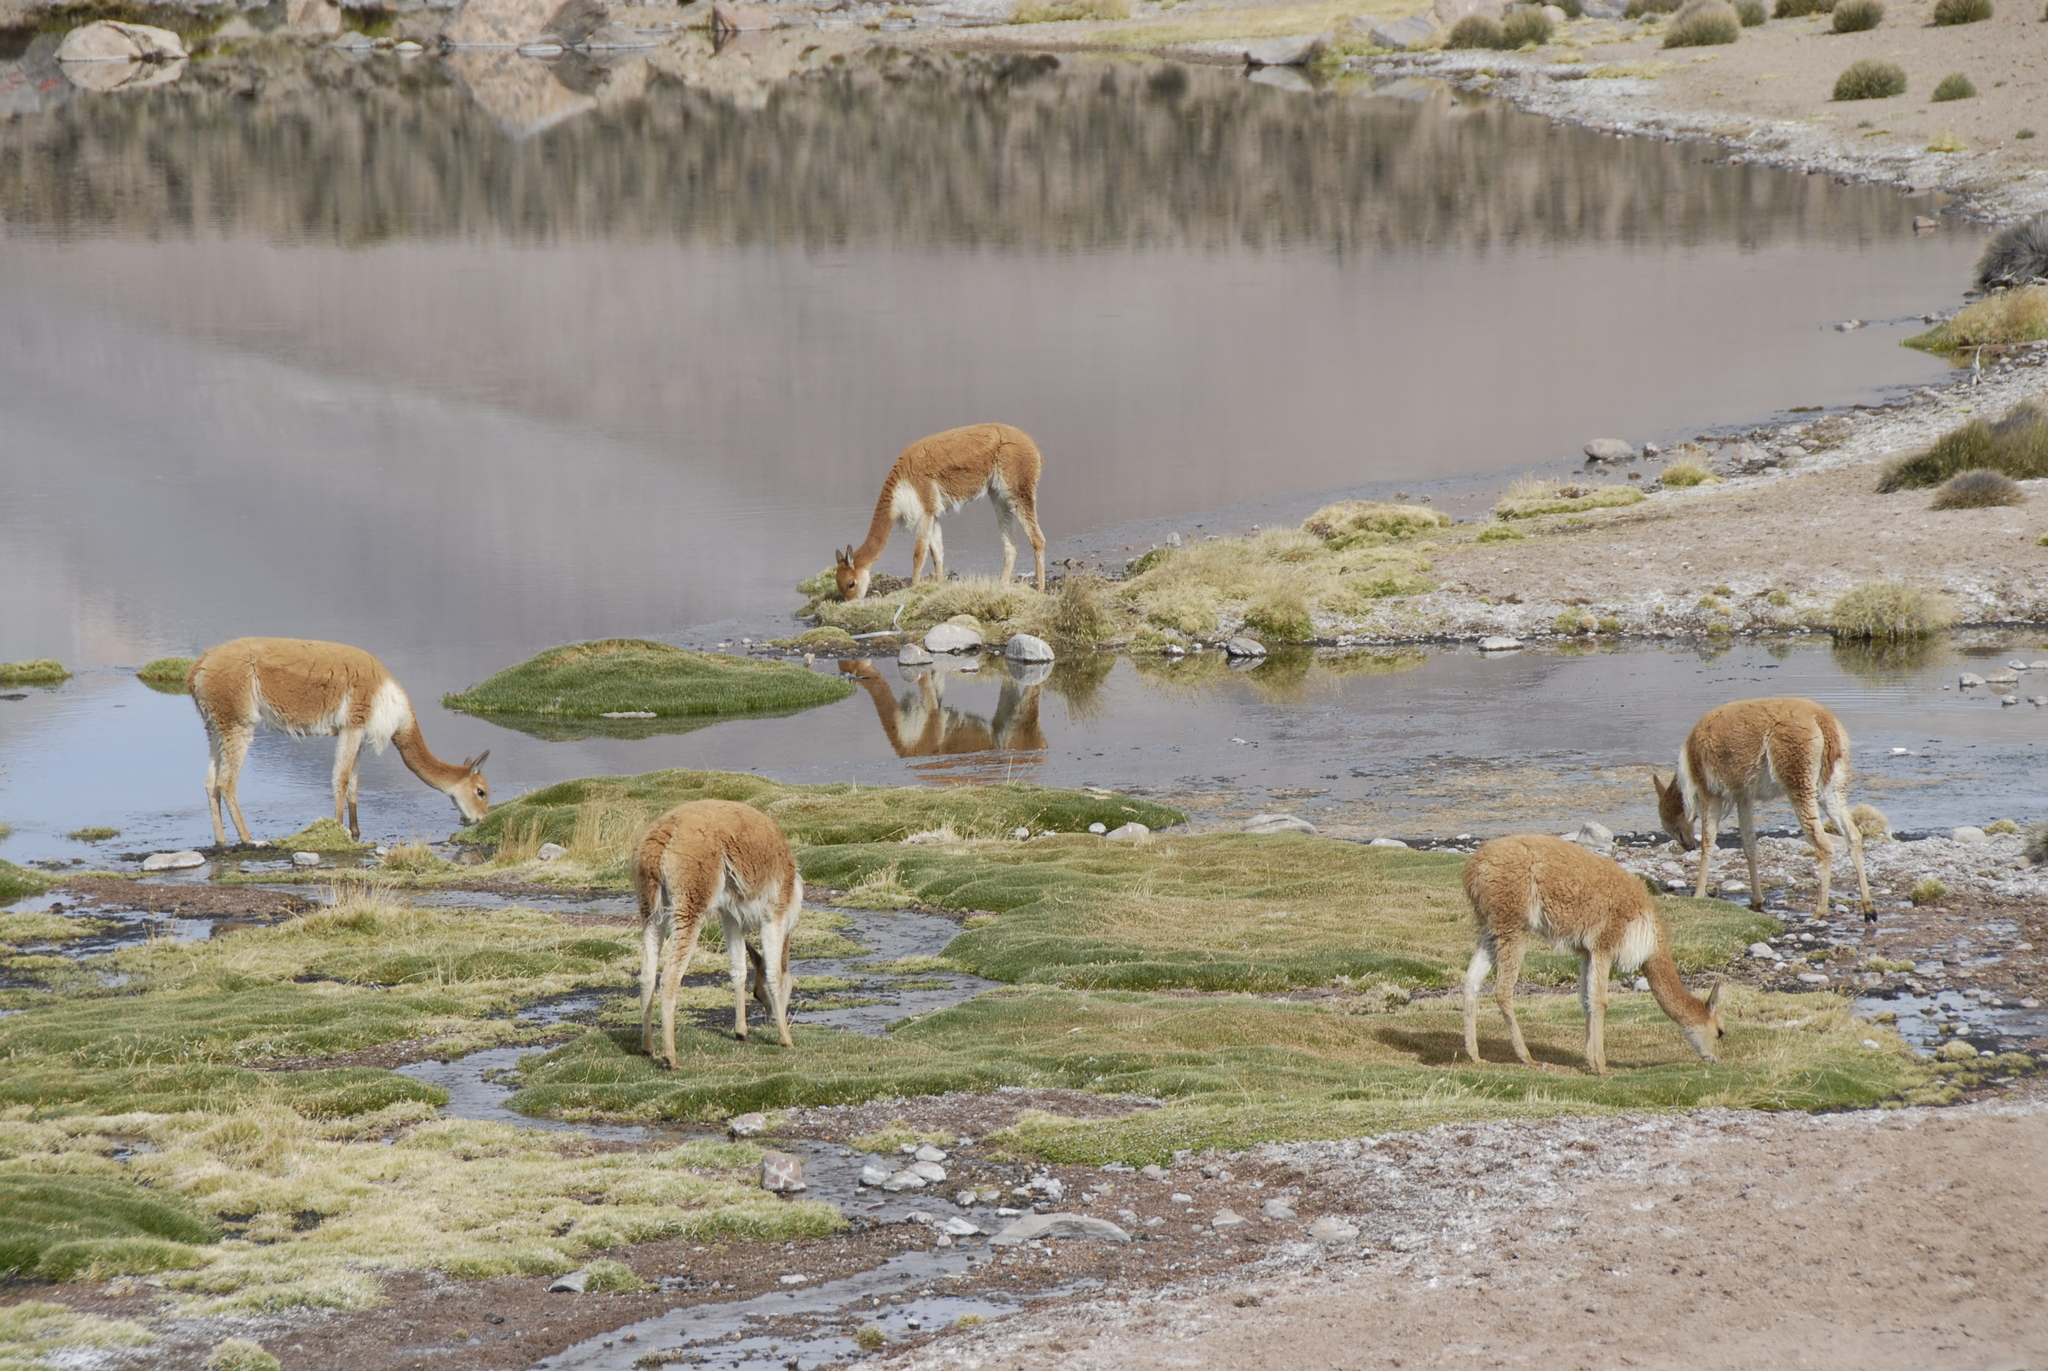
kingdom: Animalia
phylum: Chordata
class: Mammalia
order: Artiodactyla
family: Camelidae
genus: Vicugna
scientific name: Vicugna vicugna
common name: Vicugna
